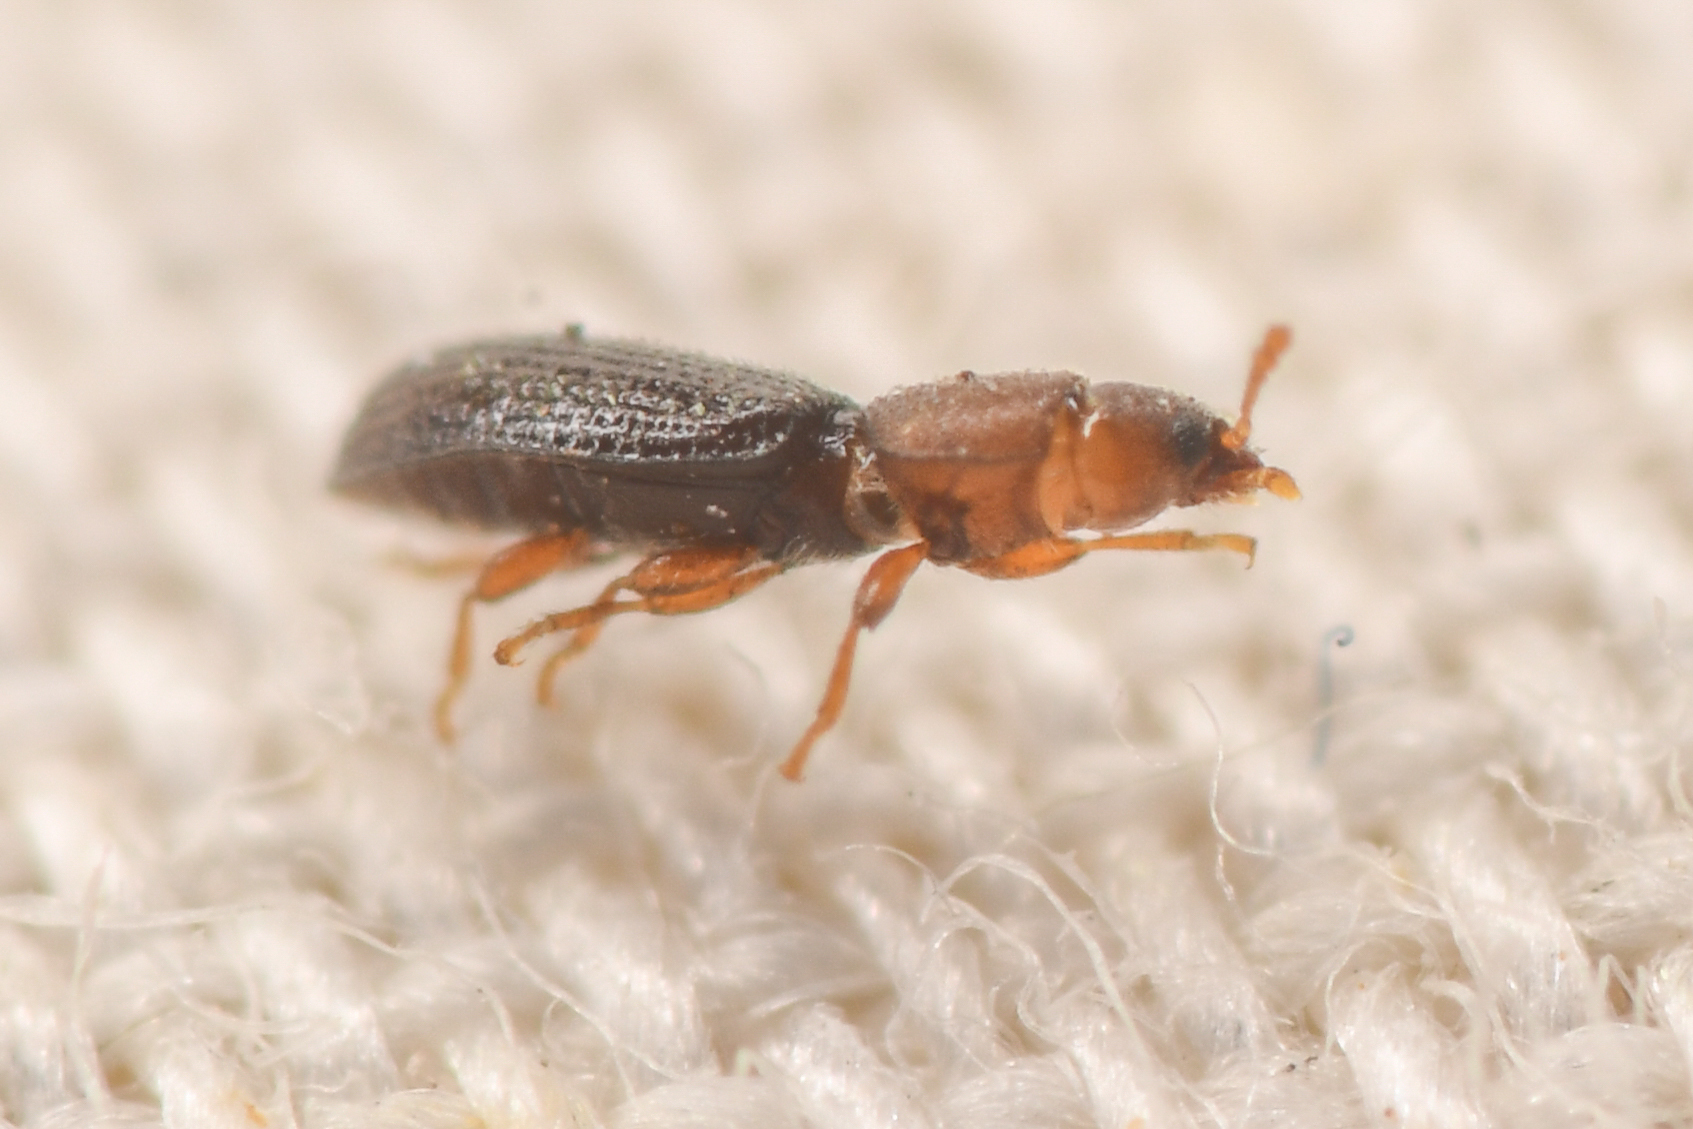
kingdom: Animalia
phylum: Arthropoda
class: Insecta
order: Coleoptera
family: Ciidae
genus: Hadraule
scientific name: Hadraule blaisdelli
